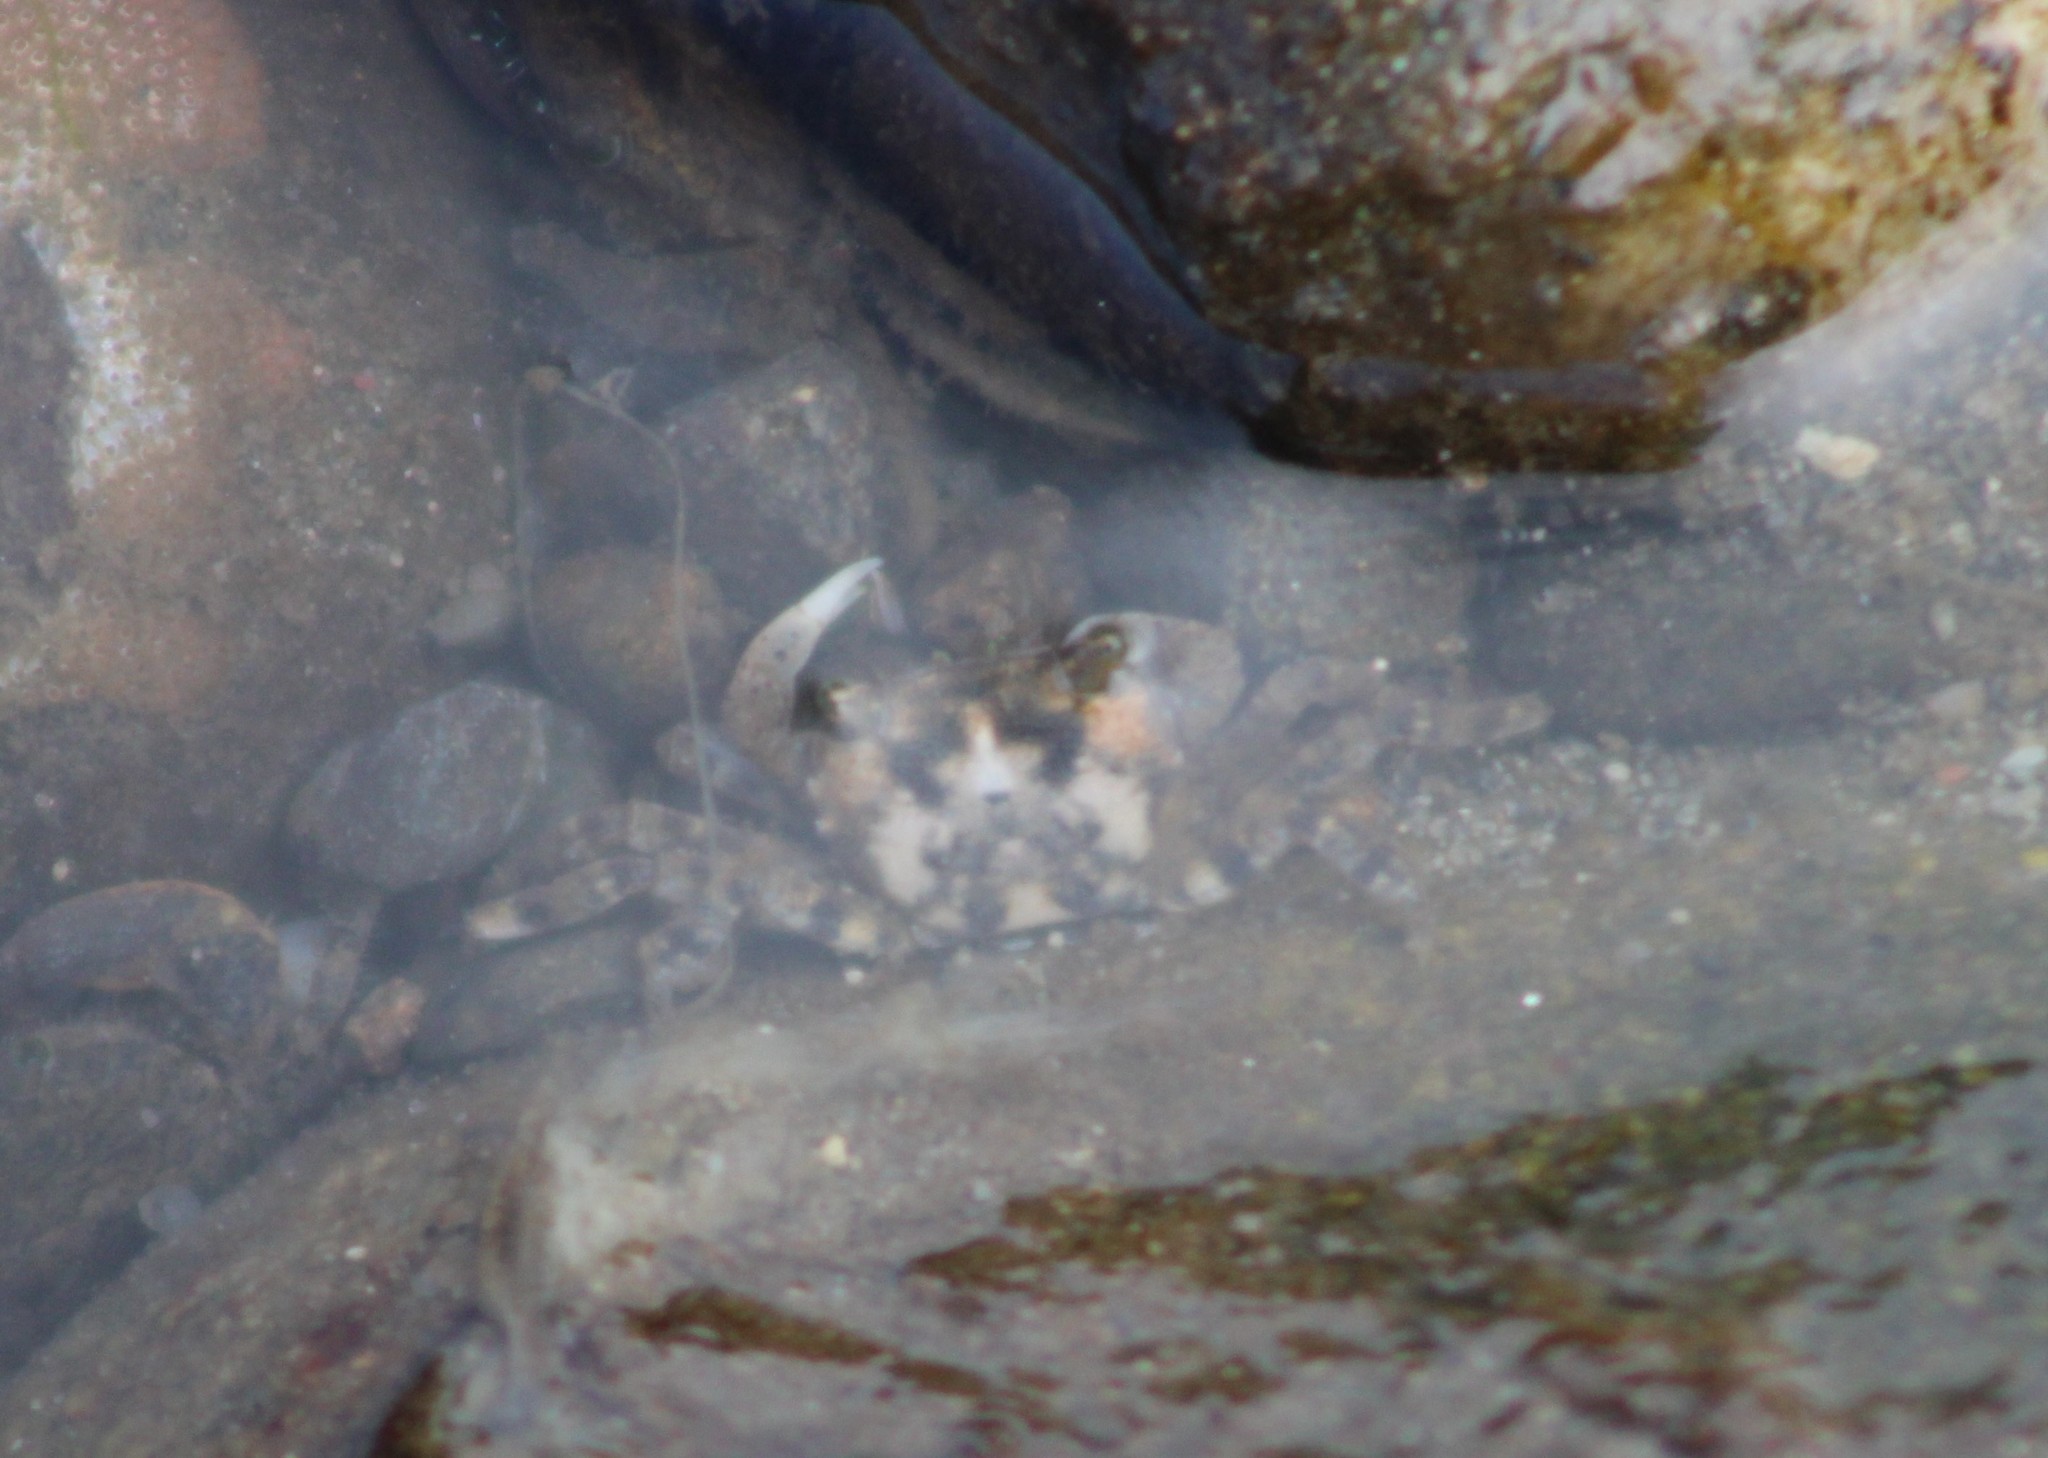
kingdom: Animalia
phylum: Arthropoda
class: Malacostraca
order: Decapoda
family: Varunidae
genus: Hemigrapsus
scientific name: Hemigrapsus sanguineus
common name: Asian shore crab
